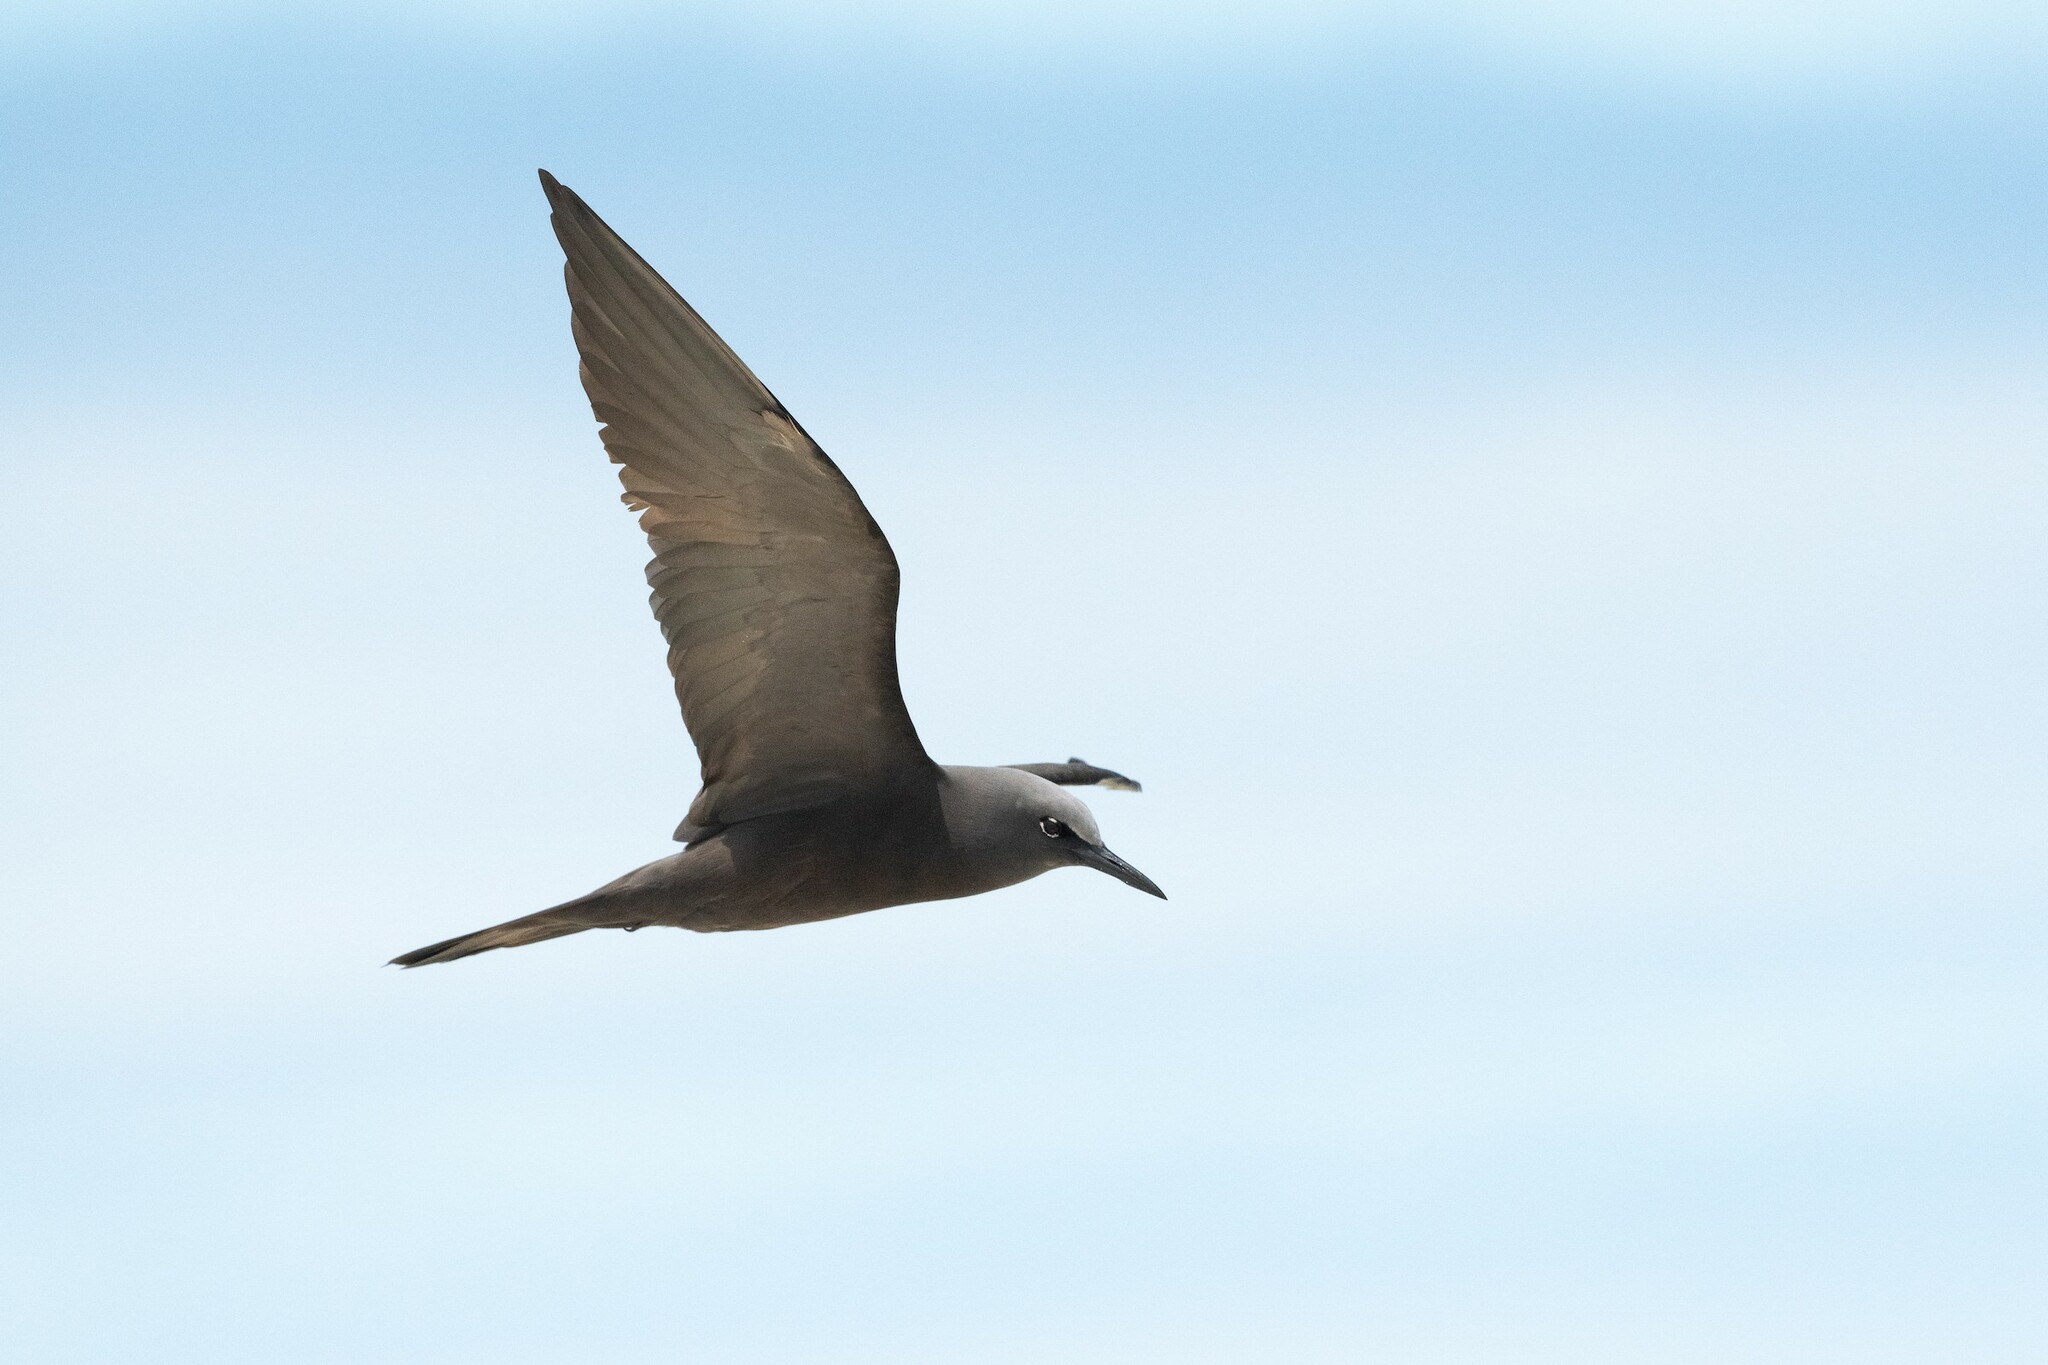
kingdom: Animalia
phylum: Chordata
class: Aves
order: Charadriiformes
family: Laridae
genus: Anous
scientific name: Anous stolidus
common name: Brown noddy
